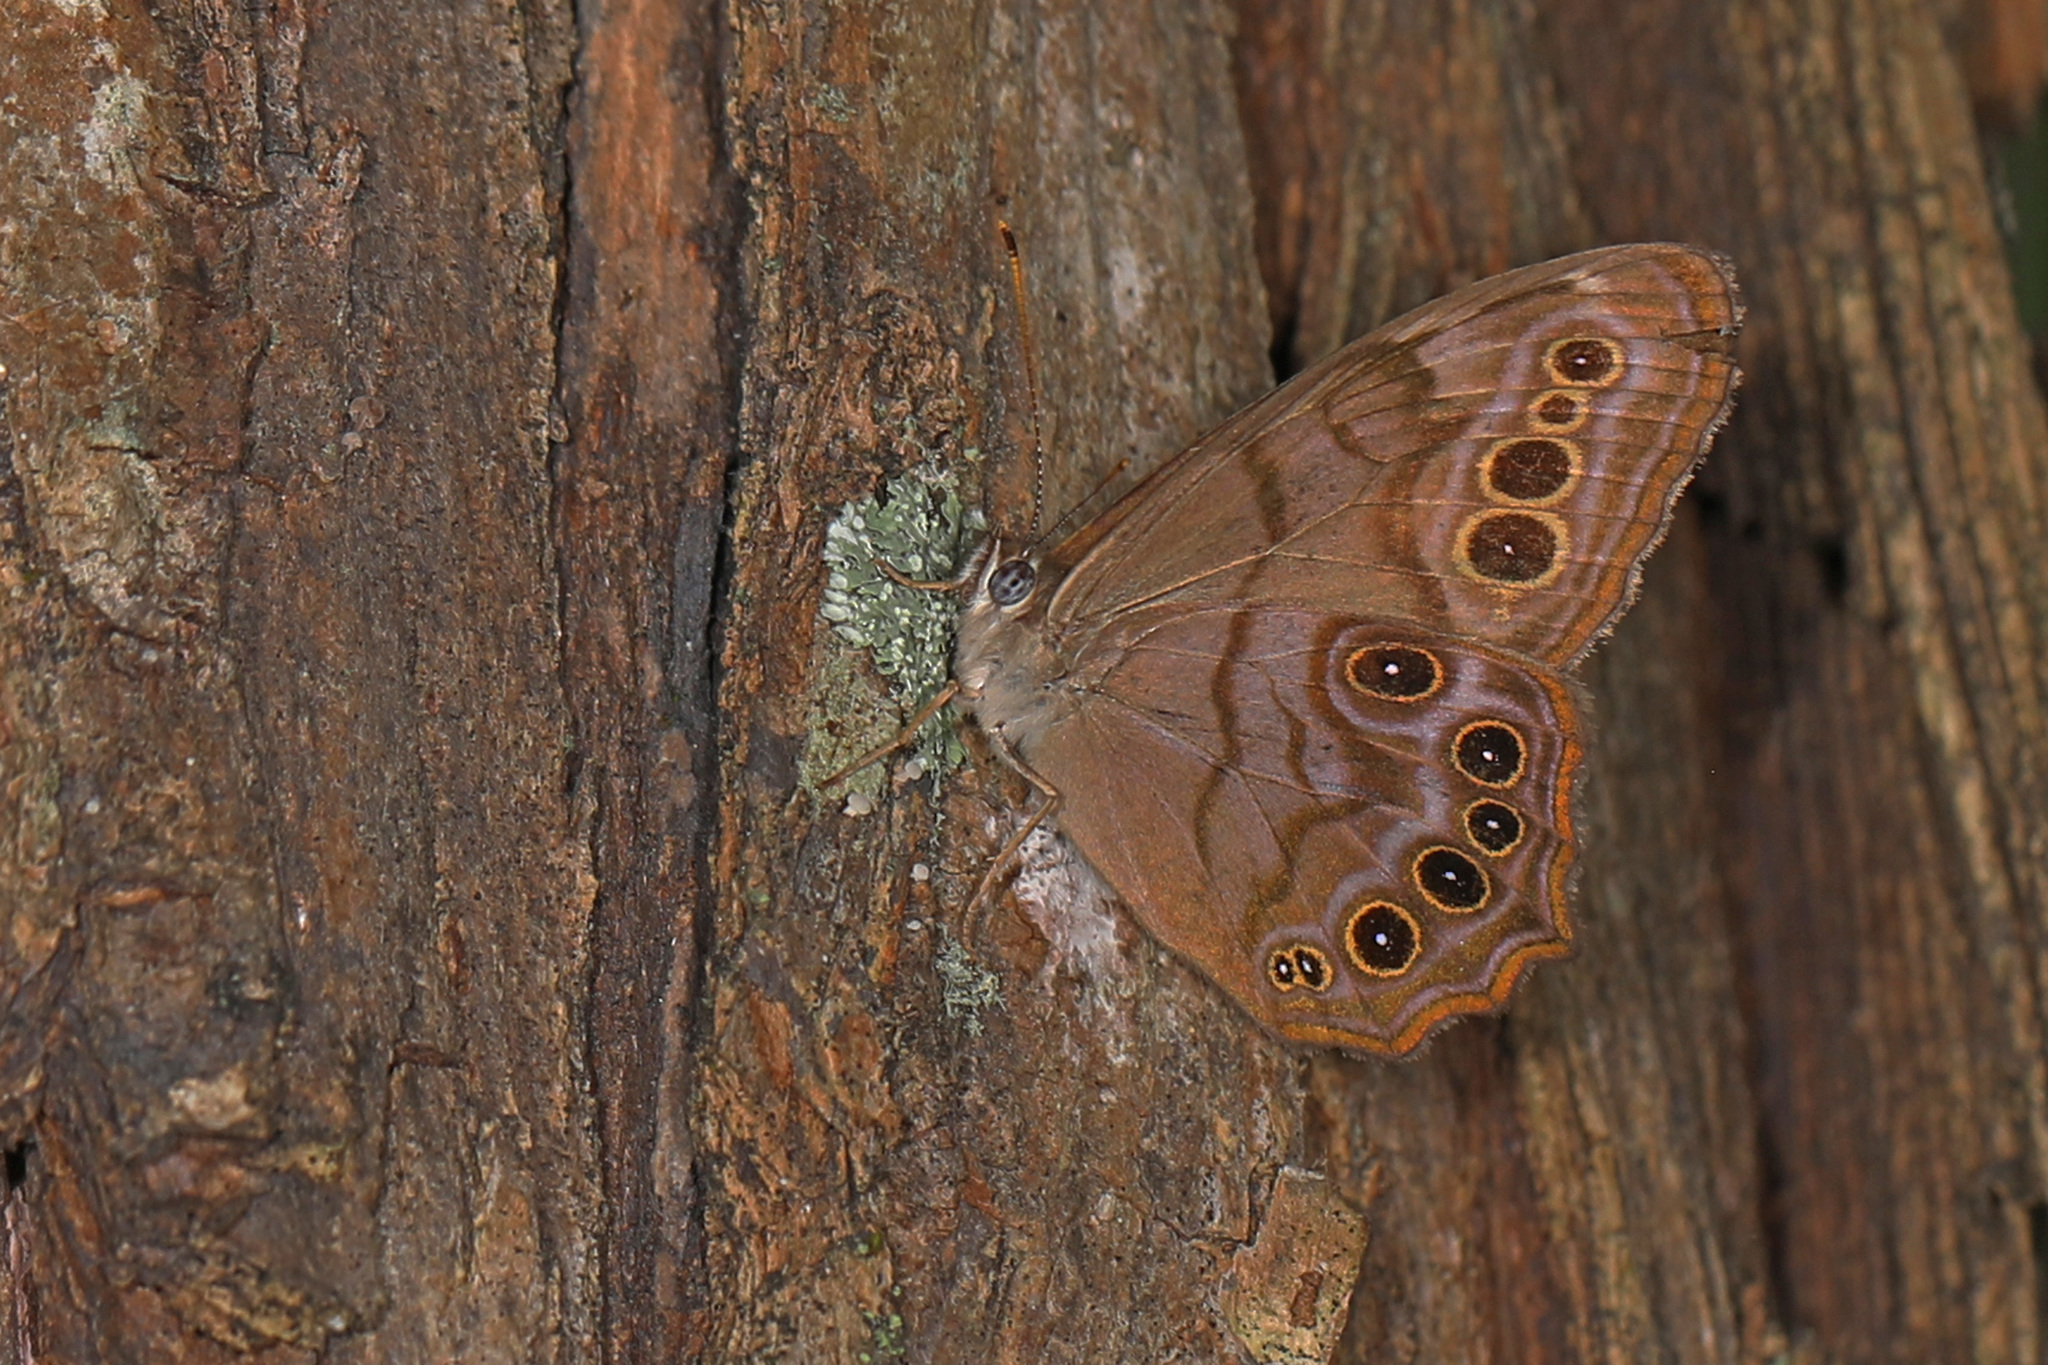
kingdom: Animalia
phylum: Arthropoda
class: Insecta
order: Lepidoptera
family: Nymphalidae
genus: Lethe
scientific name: Lethe anthedon
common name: Northern pearly-eye
